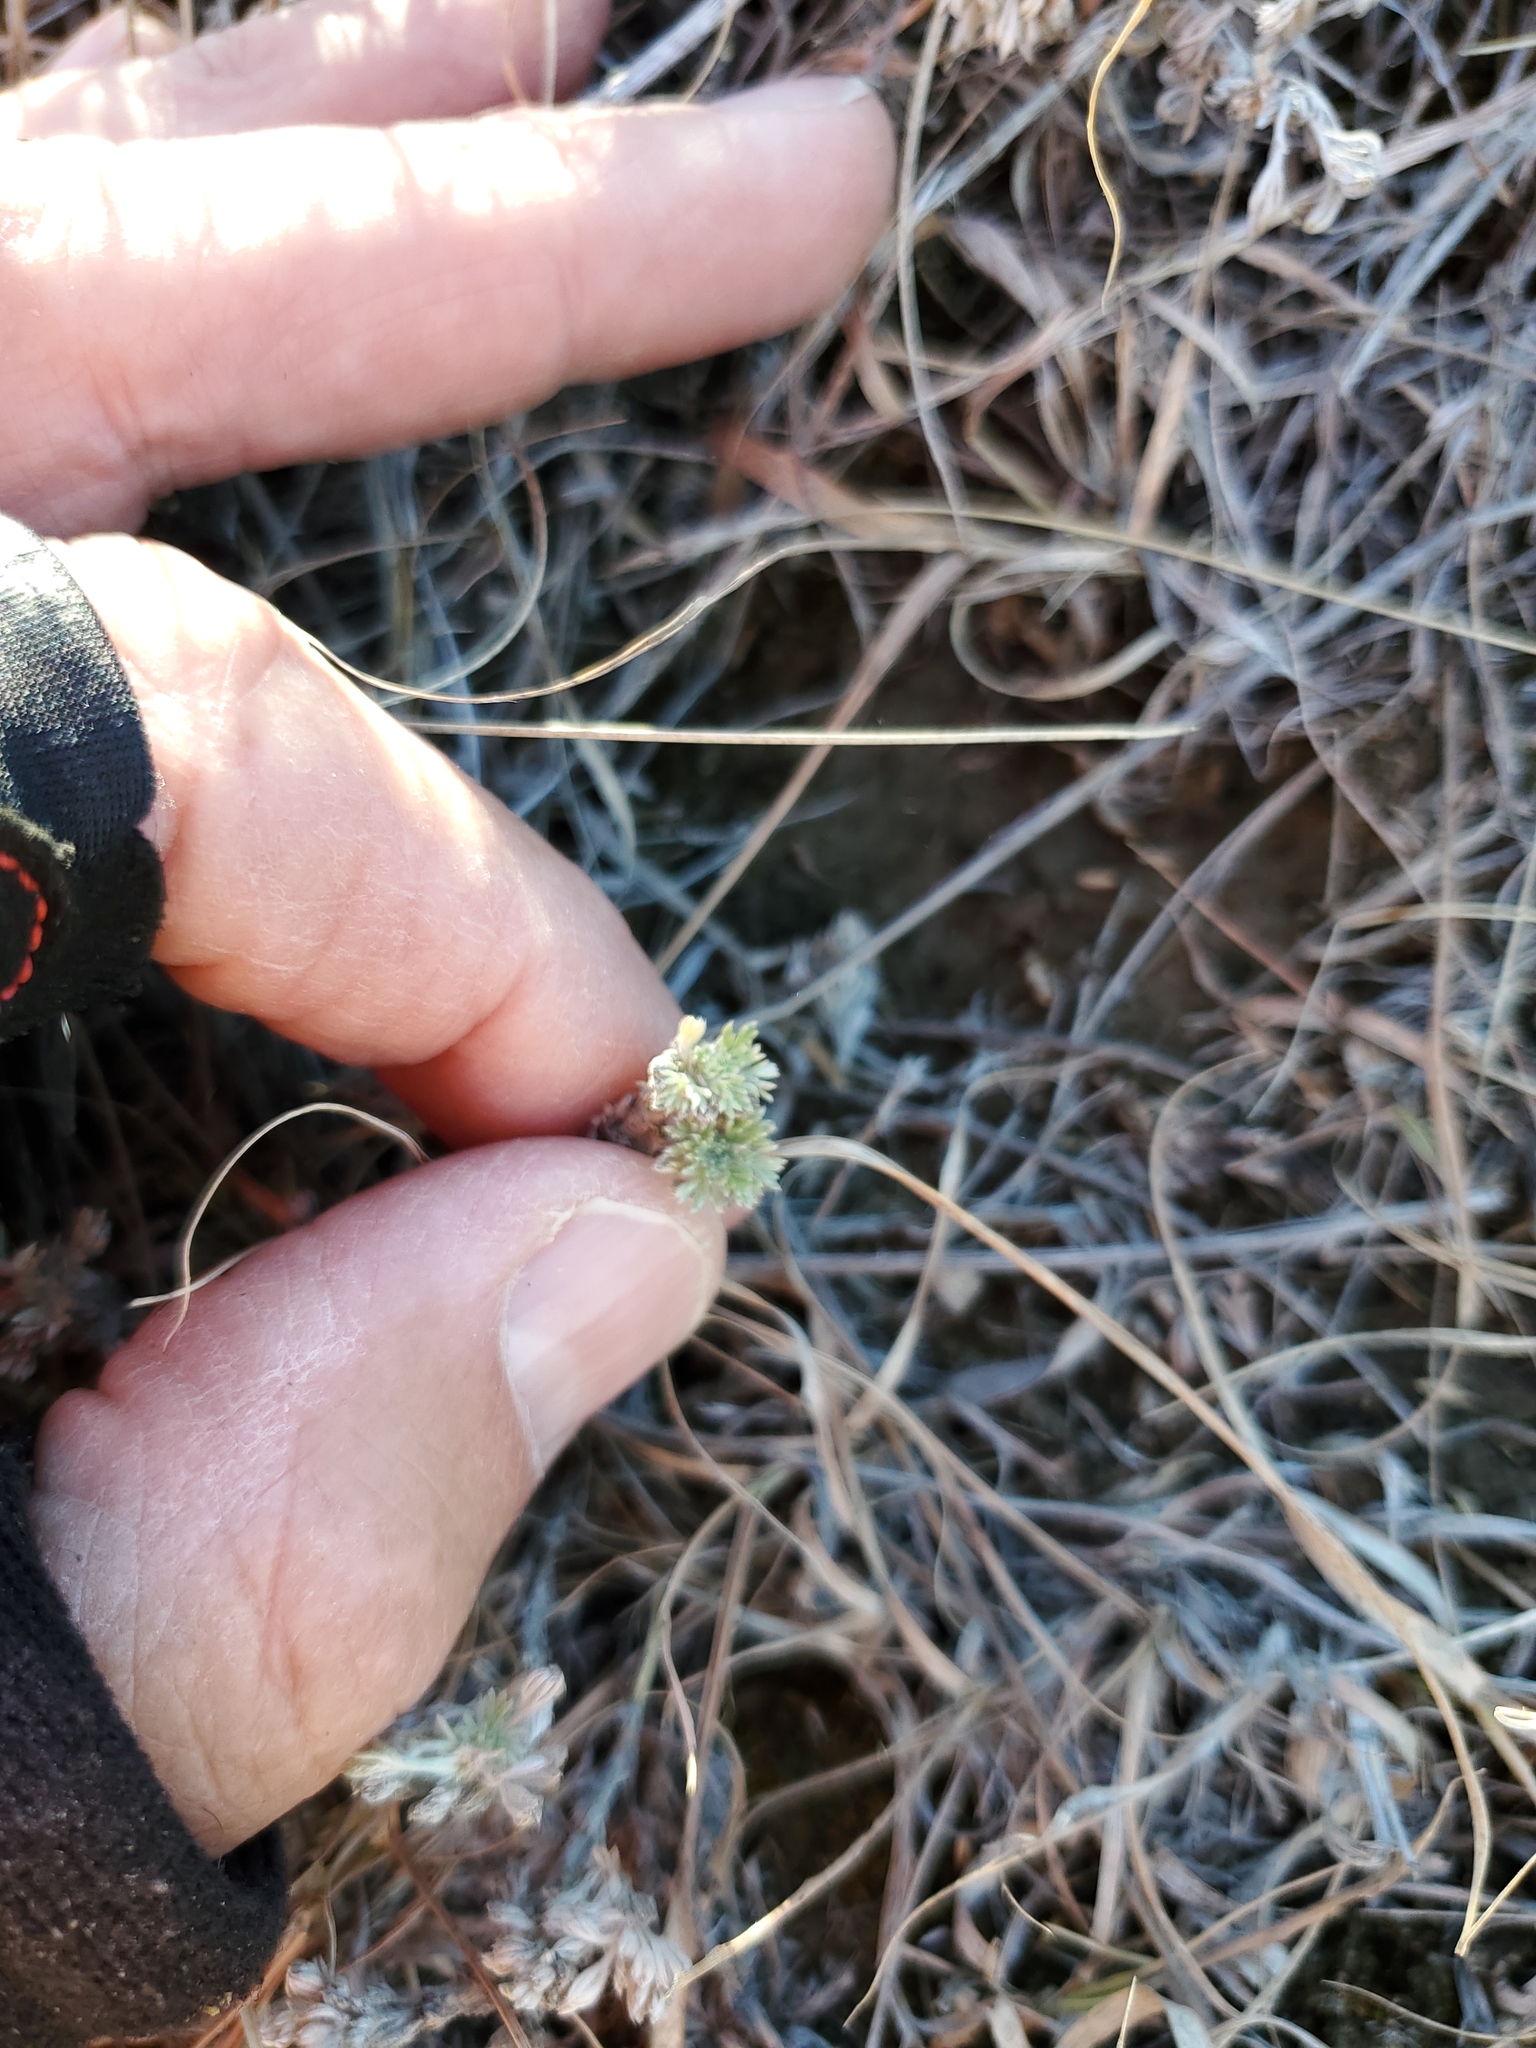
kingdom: Plantae
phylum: Tracheophyta
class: Magnoliopsida
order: Asterales
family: Asteraceae
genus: Artemisia
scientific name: Artemisia frigida
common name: Prairie sagewort
